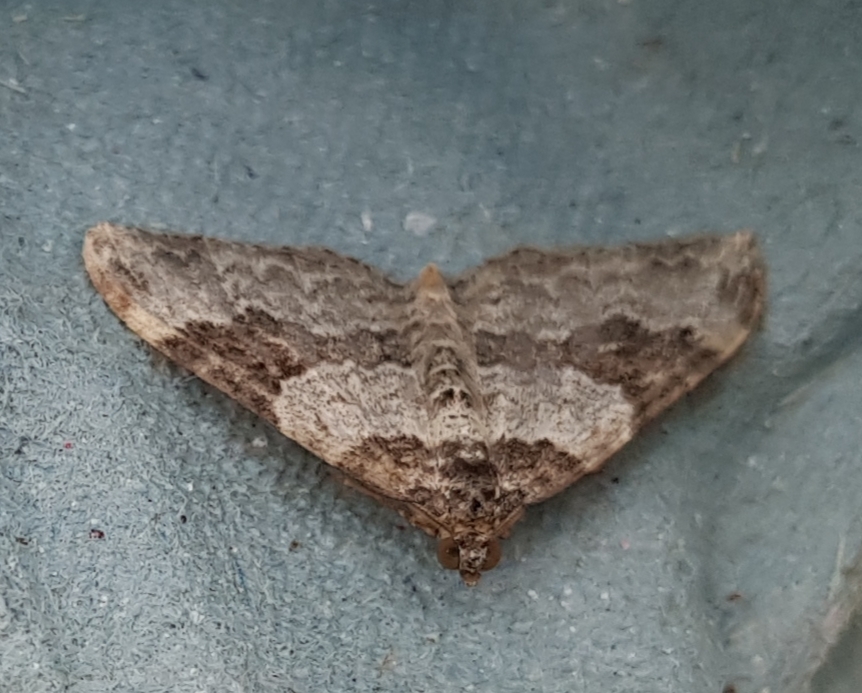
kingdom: Animalia
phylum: Arthropoda
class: Insecta
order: Lepidoptera
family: Geometridae
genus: Xanthorhoe
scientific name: Xanthorhoe fluctuata
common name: Garden carpet
